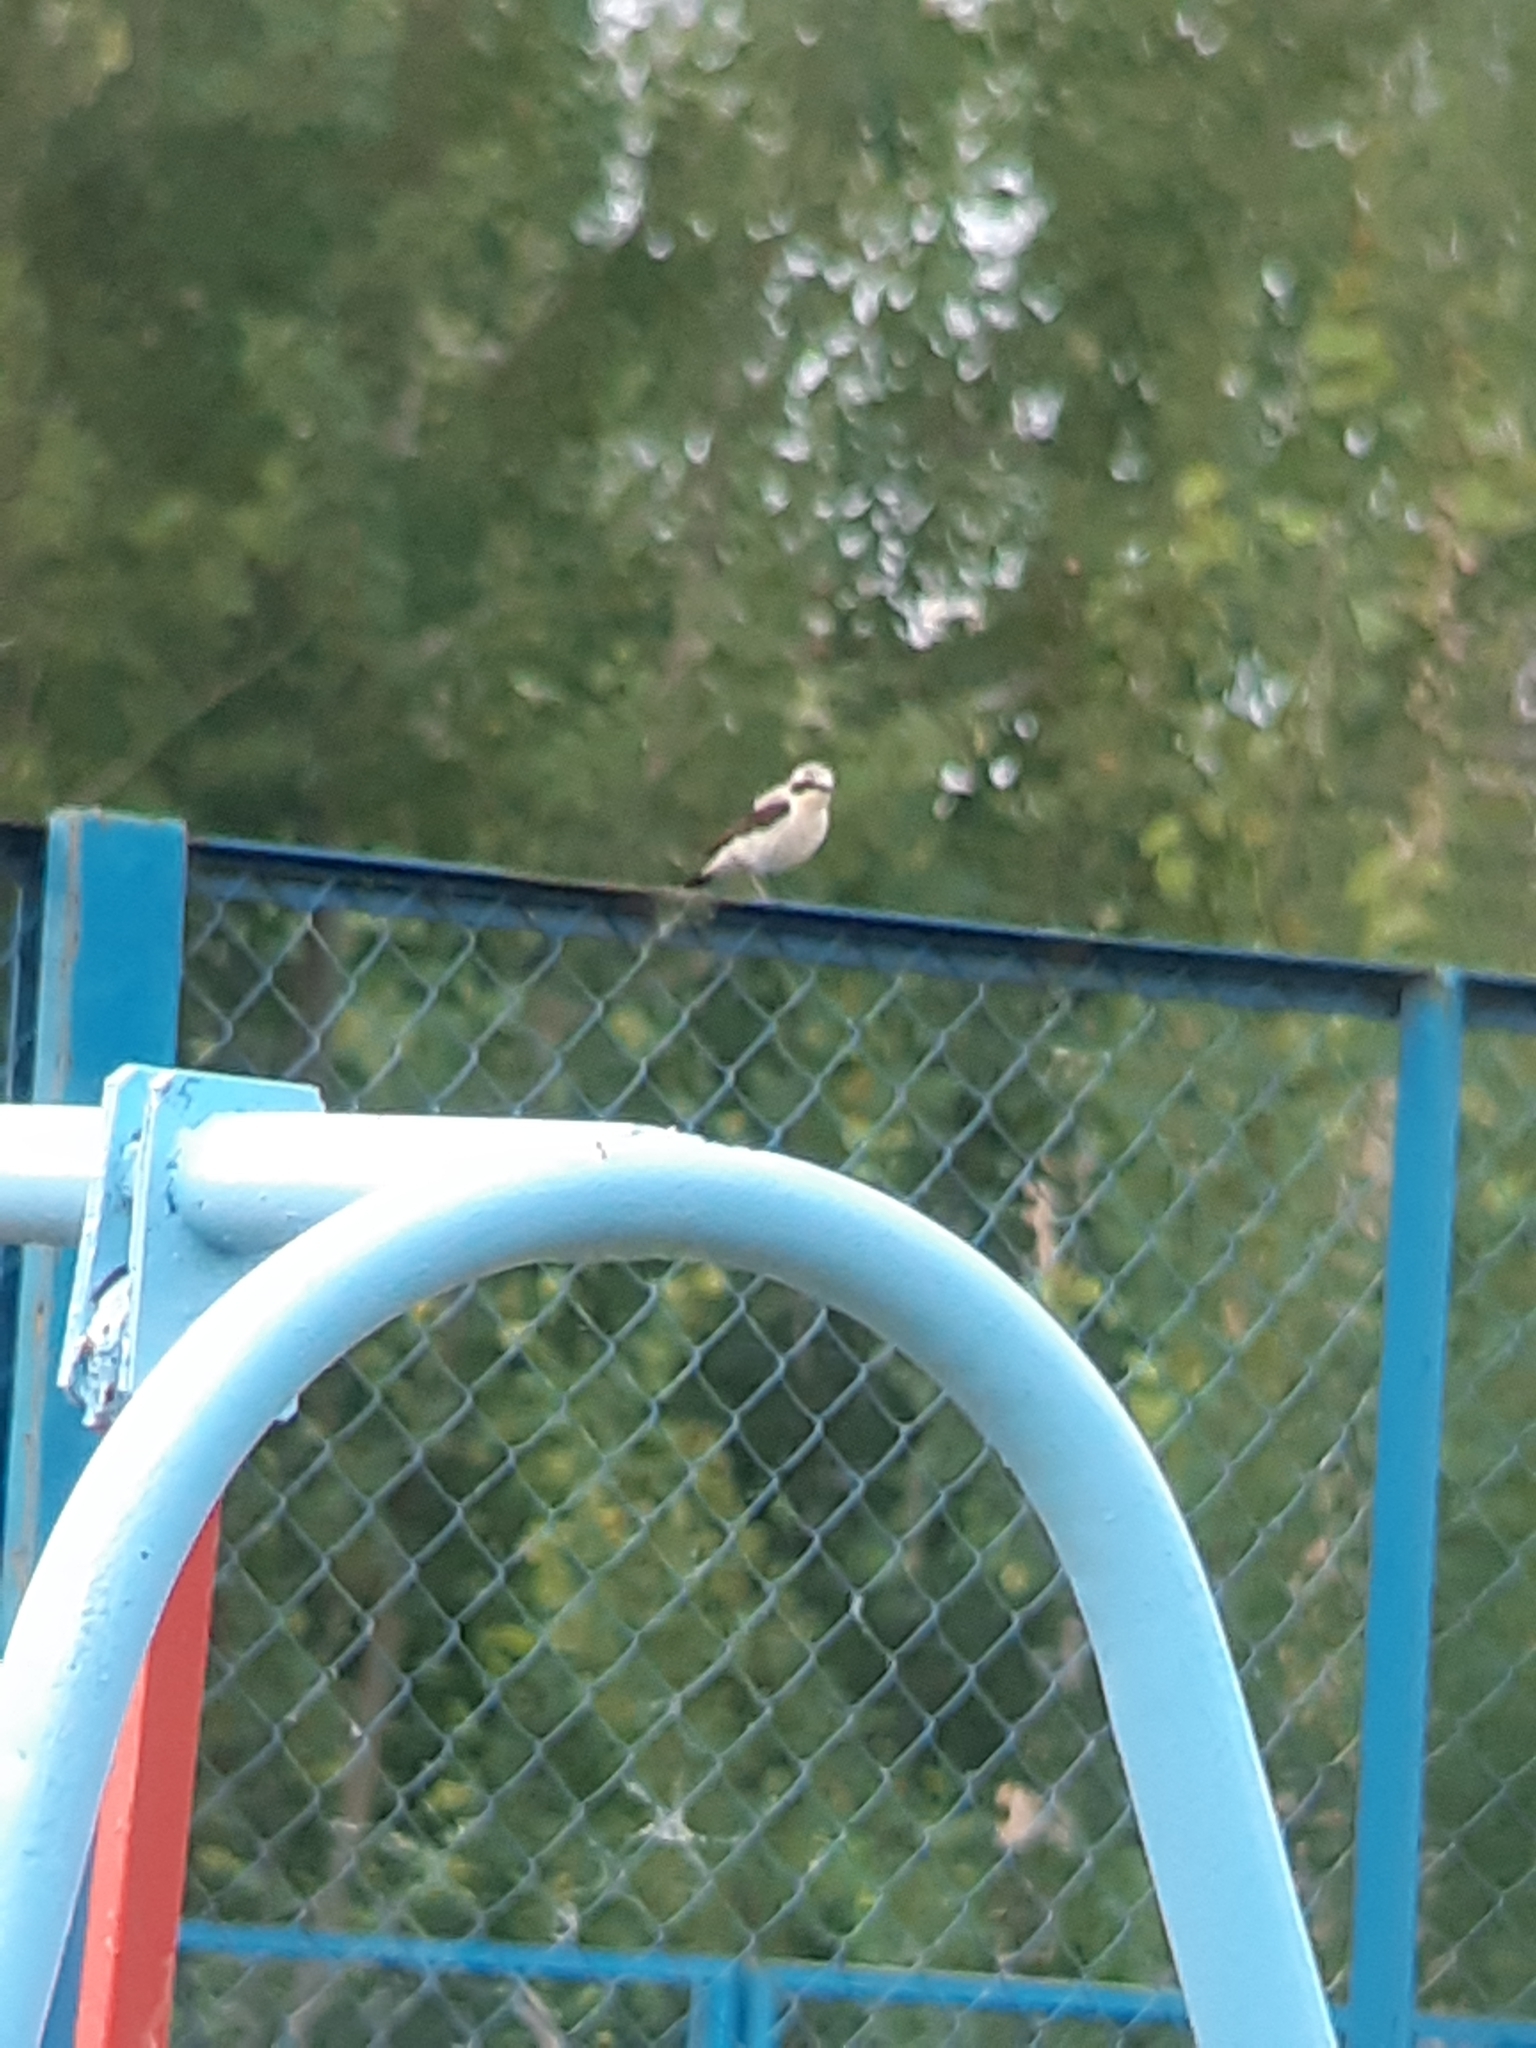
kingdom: Animalia
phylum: Chordata
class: Aves
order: Passeriformes
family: Muscicapidae
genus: Oenanthe
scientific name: Oenanthe oenanthe
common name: Northern wheatear
